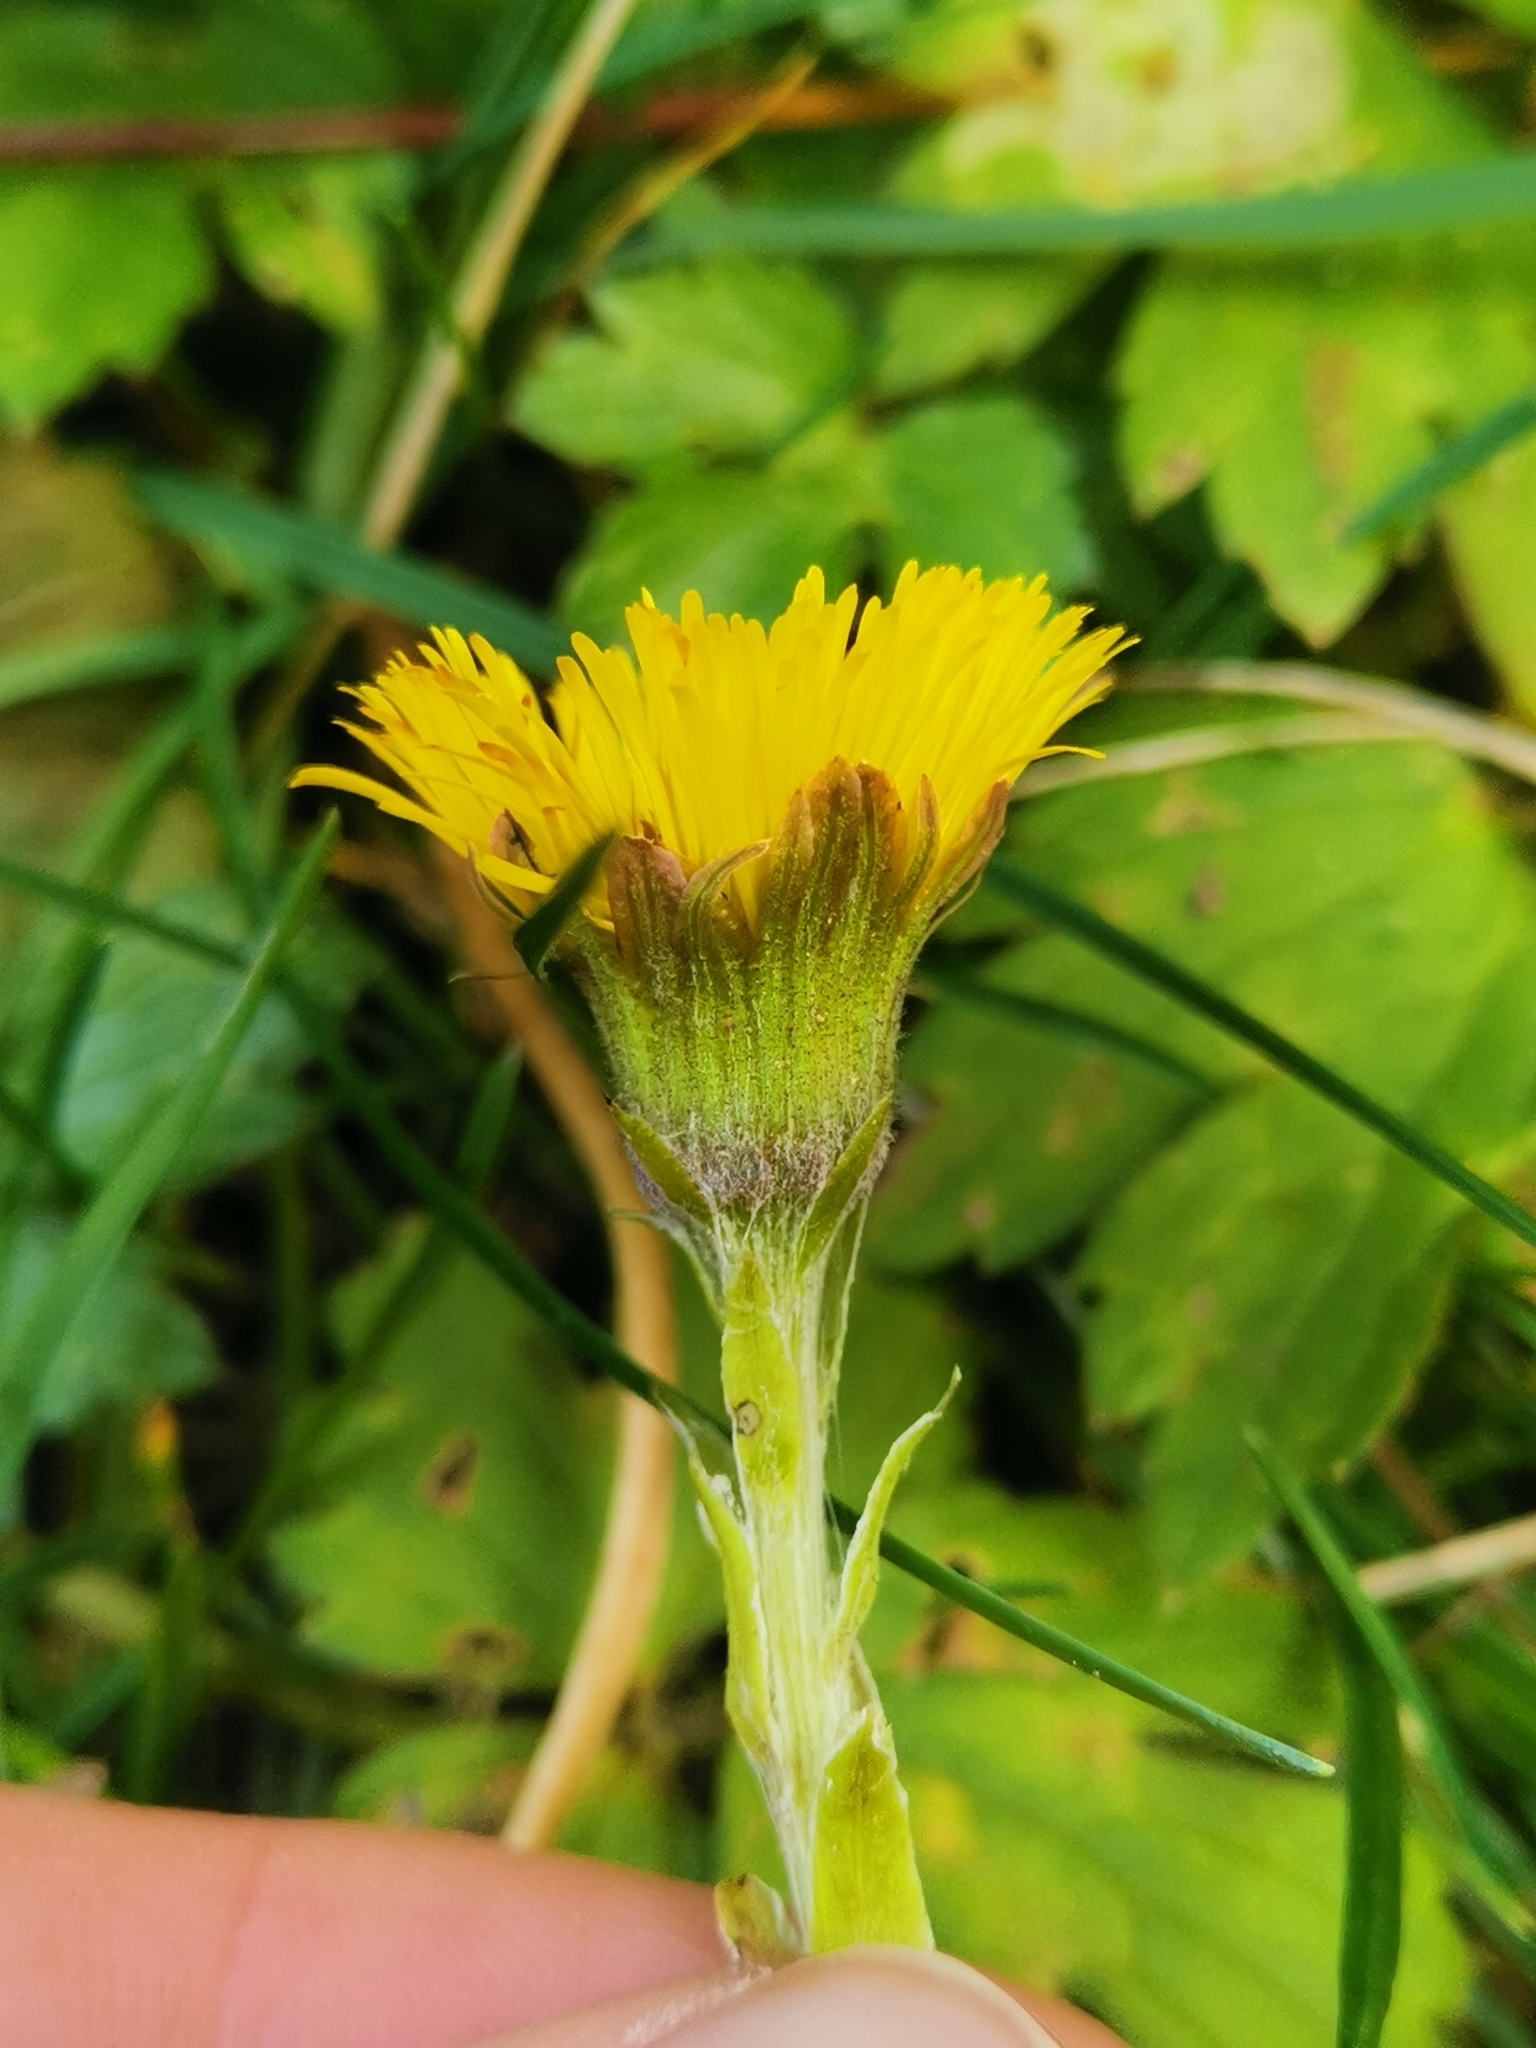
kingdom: Plantae
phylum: Tracheophyta
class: Magnoliopsida
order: Asterales
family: Asteraceae
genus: Tussilago
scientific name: Tussilago farfara
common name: Coltsfoot
